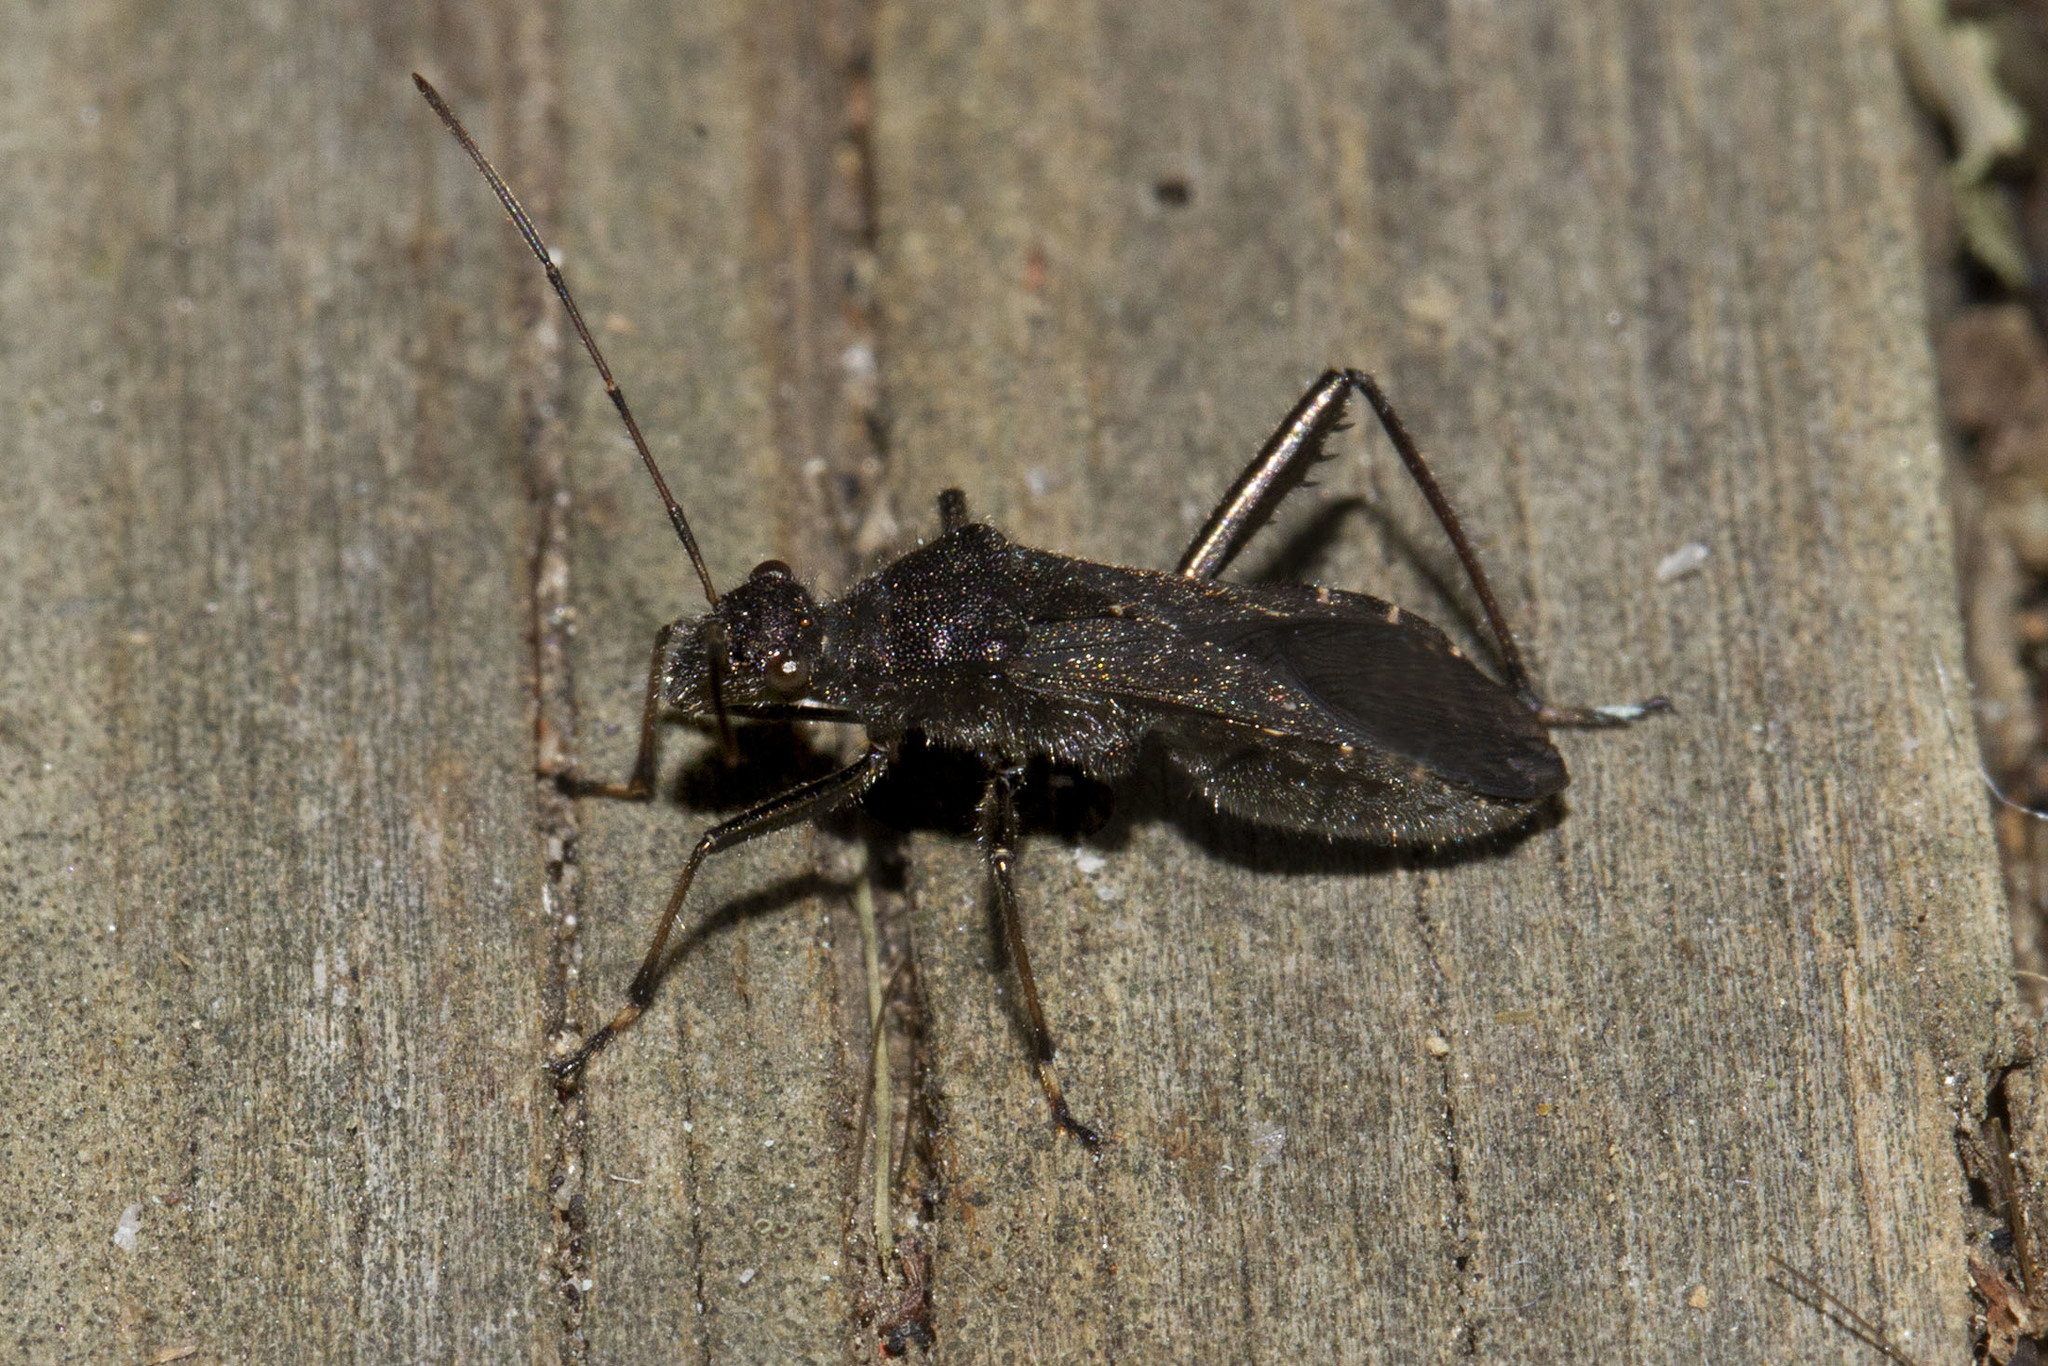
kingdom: Animalia
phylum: Arthropoda
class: Insecta
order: Hemiptera
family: Alydidae
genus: Alydus
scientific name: Alydus eurinus
